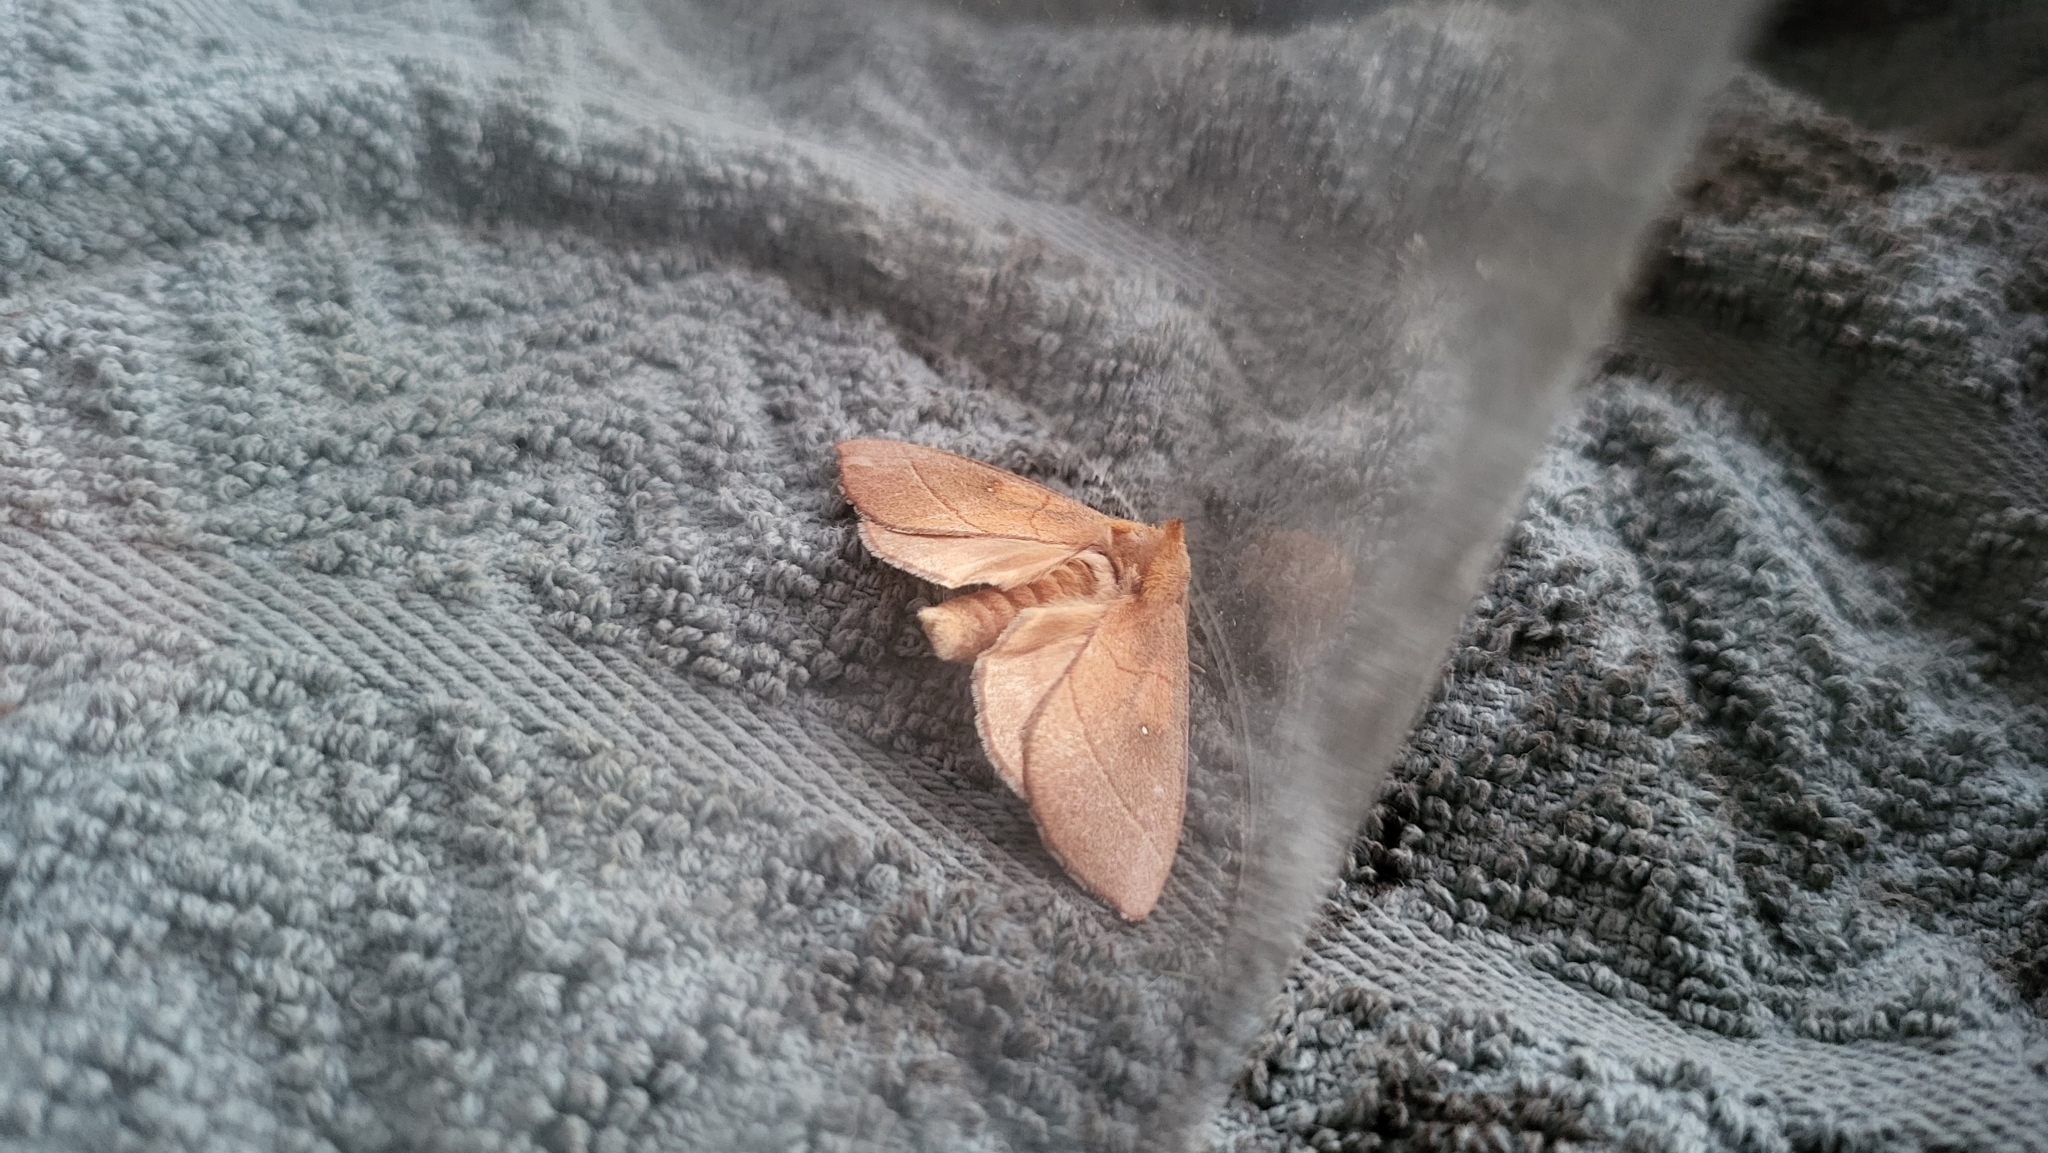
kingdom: Animalia
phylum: Arthropoda
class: Insecta
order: Lepidoptera
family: Notodontidae
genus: Nadata
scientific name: Nadata gibbosa
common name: White-dotted prominent
